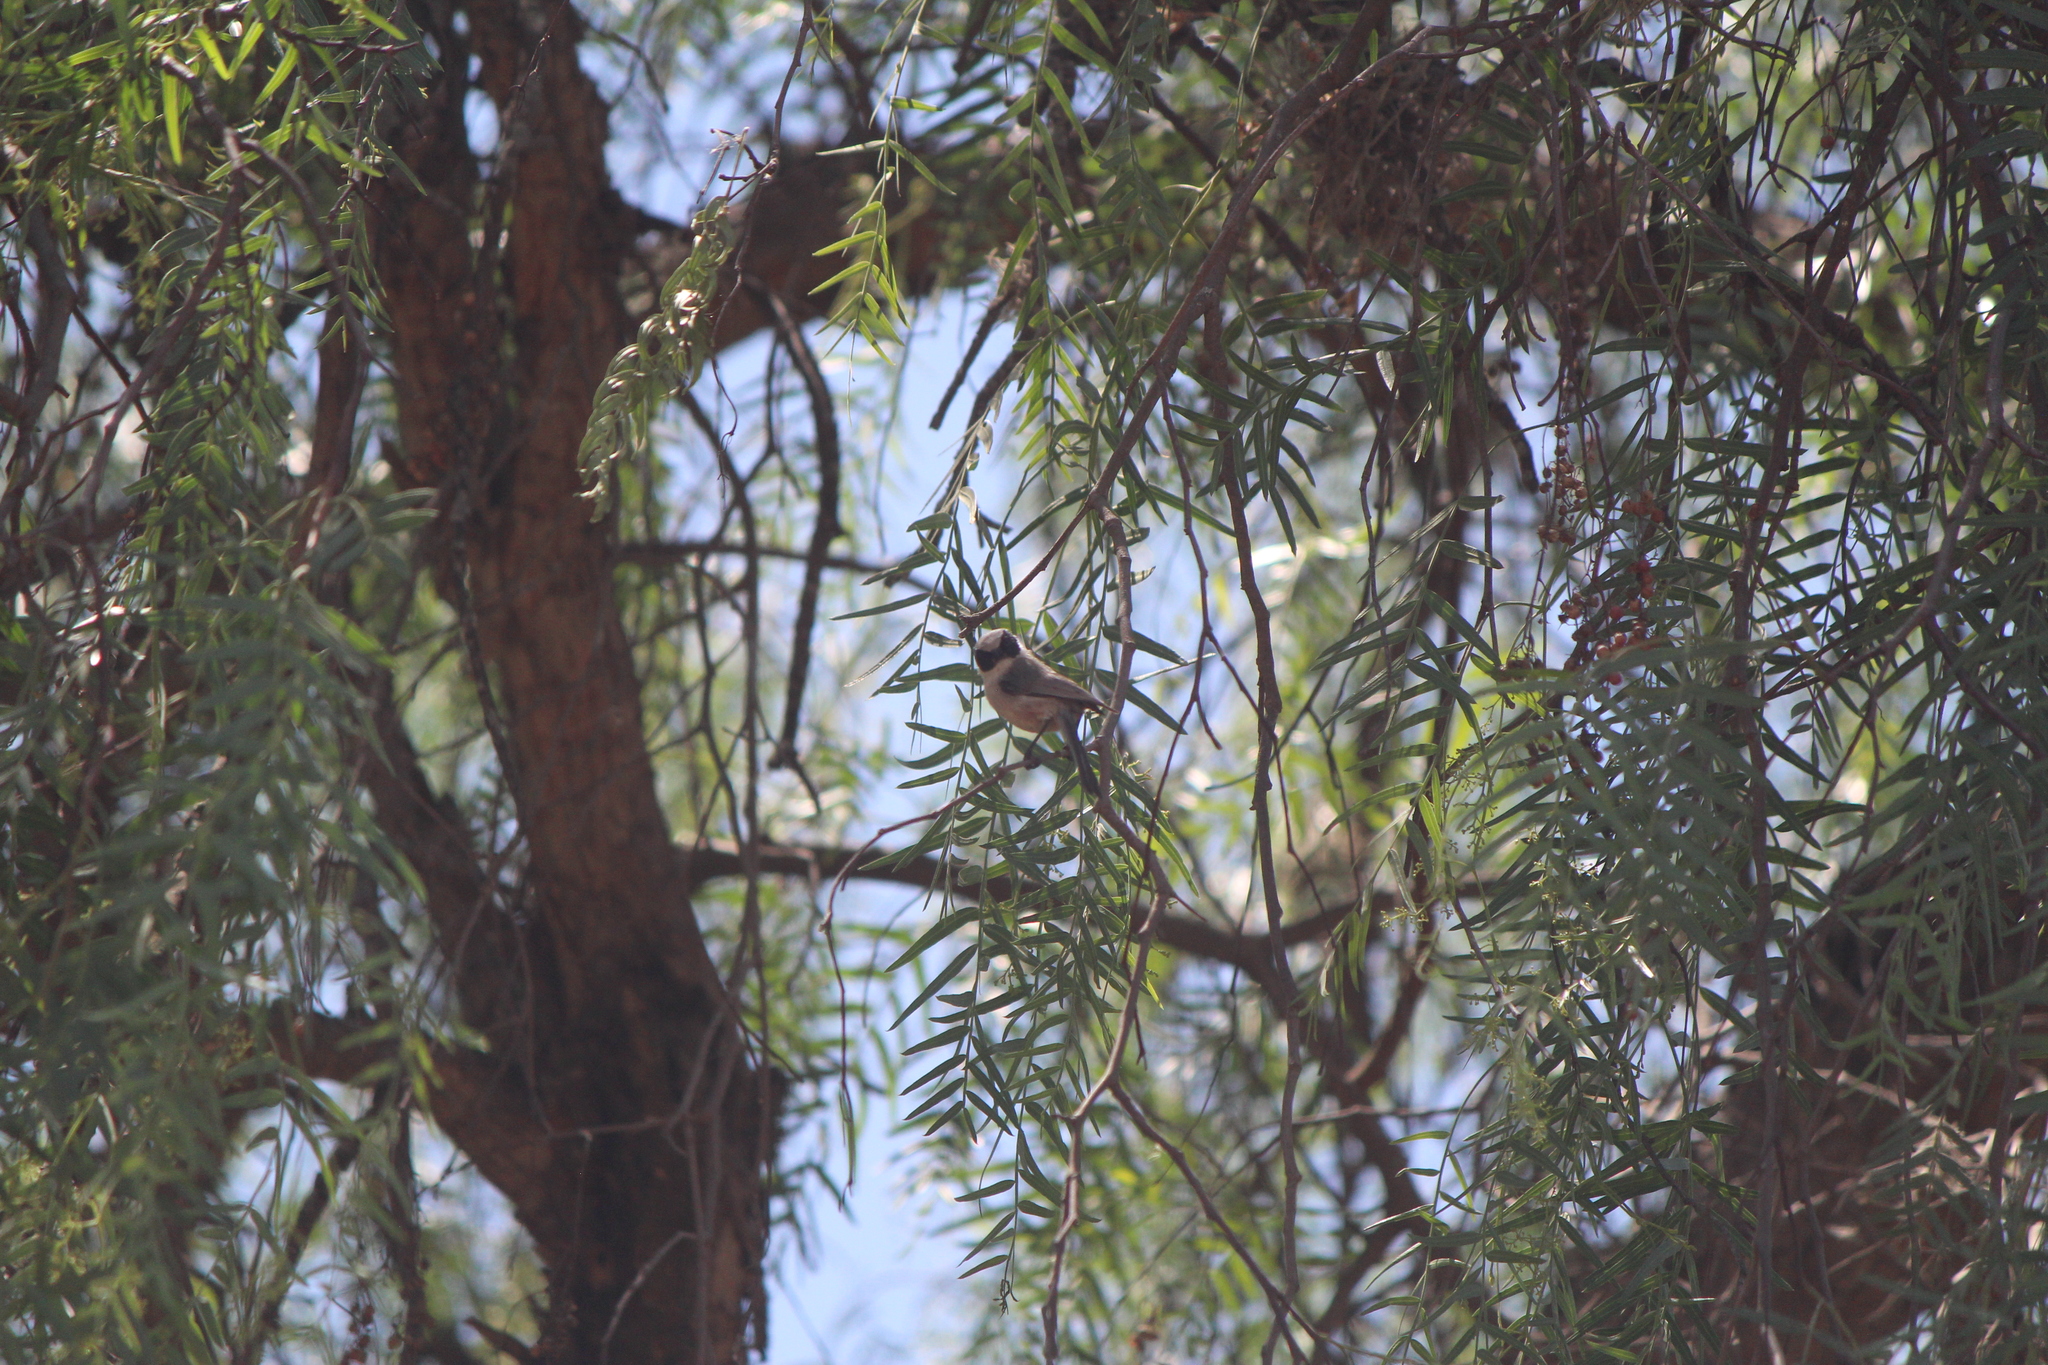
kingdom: Animalia
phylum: Chordata
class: Aves
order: Passeriformes
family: Aegithalidae
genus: Psaltriparus
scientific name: Psaltriparus minimus
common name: American bushtit
